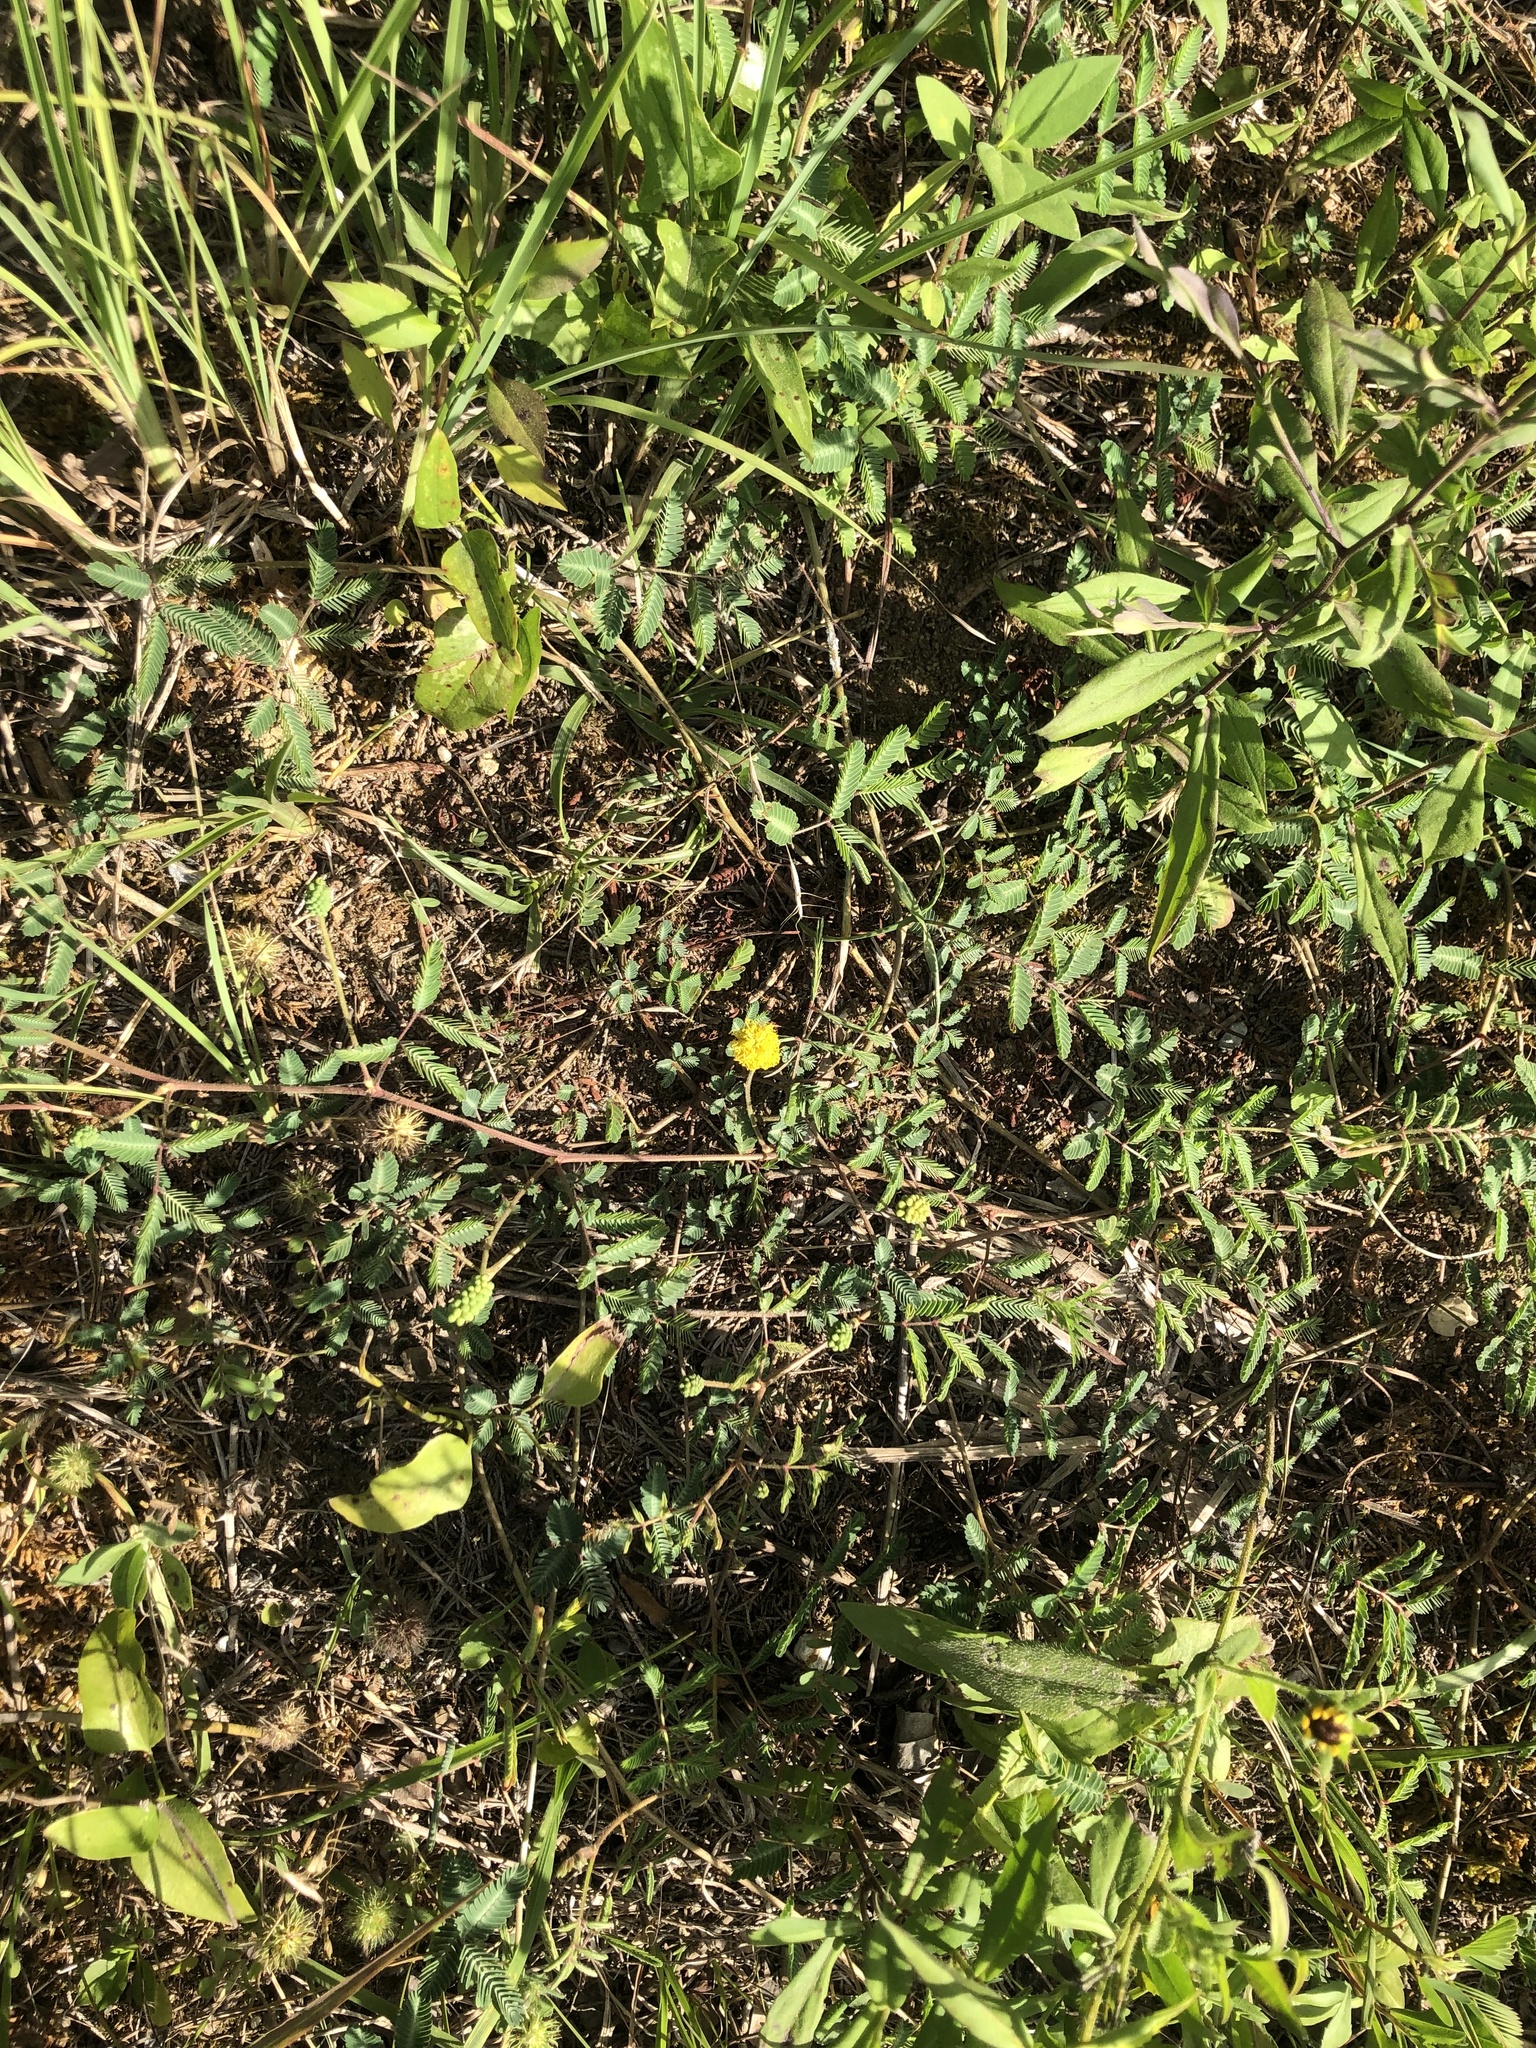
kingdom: Plantae
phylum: Tracheophyta
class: Magnoliopsida
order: Fabales
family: Fabaceae
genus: Neptunia
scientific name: Neptunia lutea
